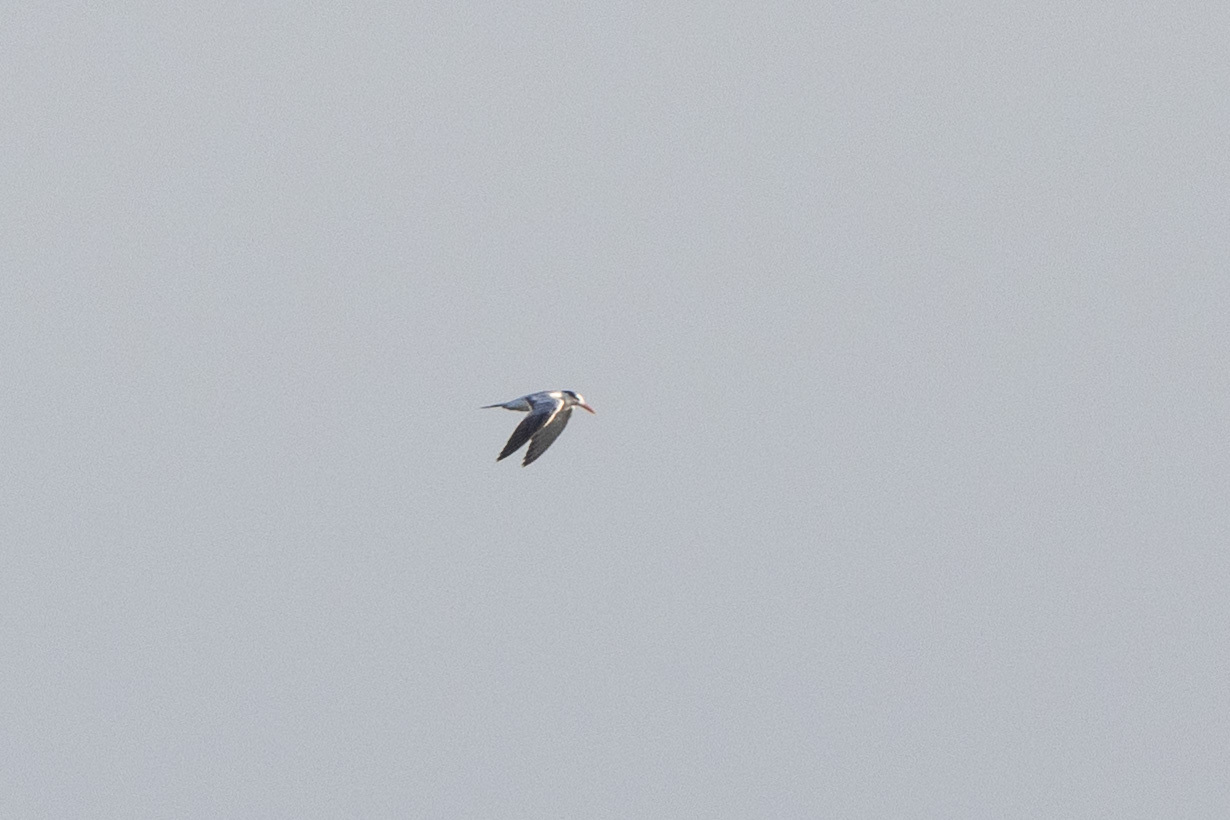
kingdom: Animalia
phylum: Chordata
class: Aves
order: Charadriiformes
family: Laridae
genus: Thalasseus
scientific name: Thalasseus maximus
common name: Royal tern
